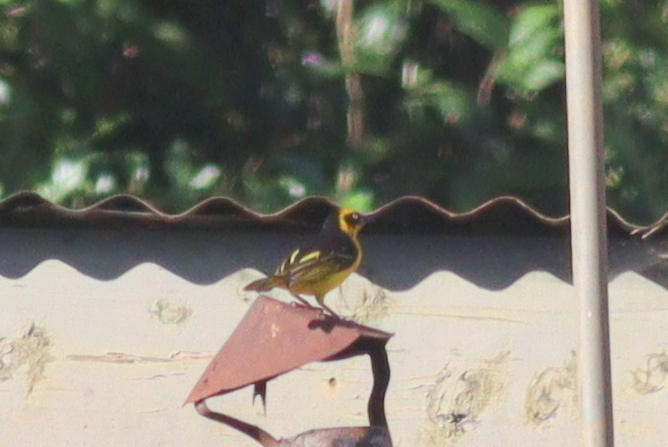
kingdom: Animalia
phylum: Chordata
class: Aves
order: Passeriformes
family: Ploceidae
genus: Ploceus
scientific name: Ploceus baglafecht
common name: Baglafecht weaver
